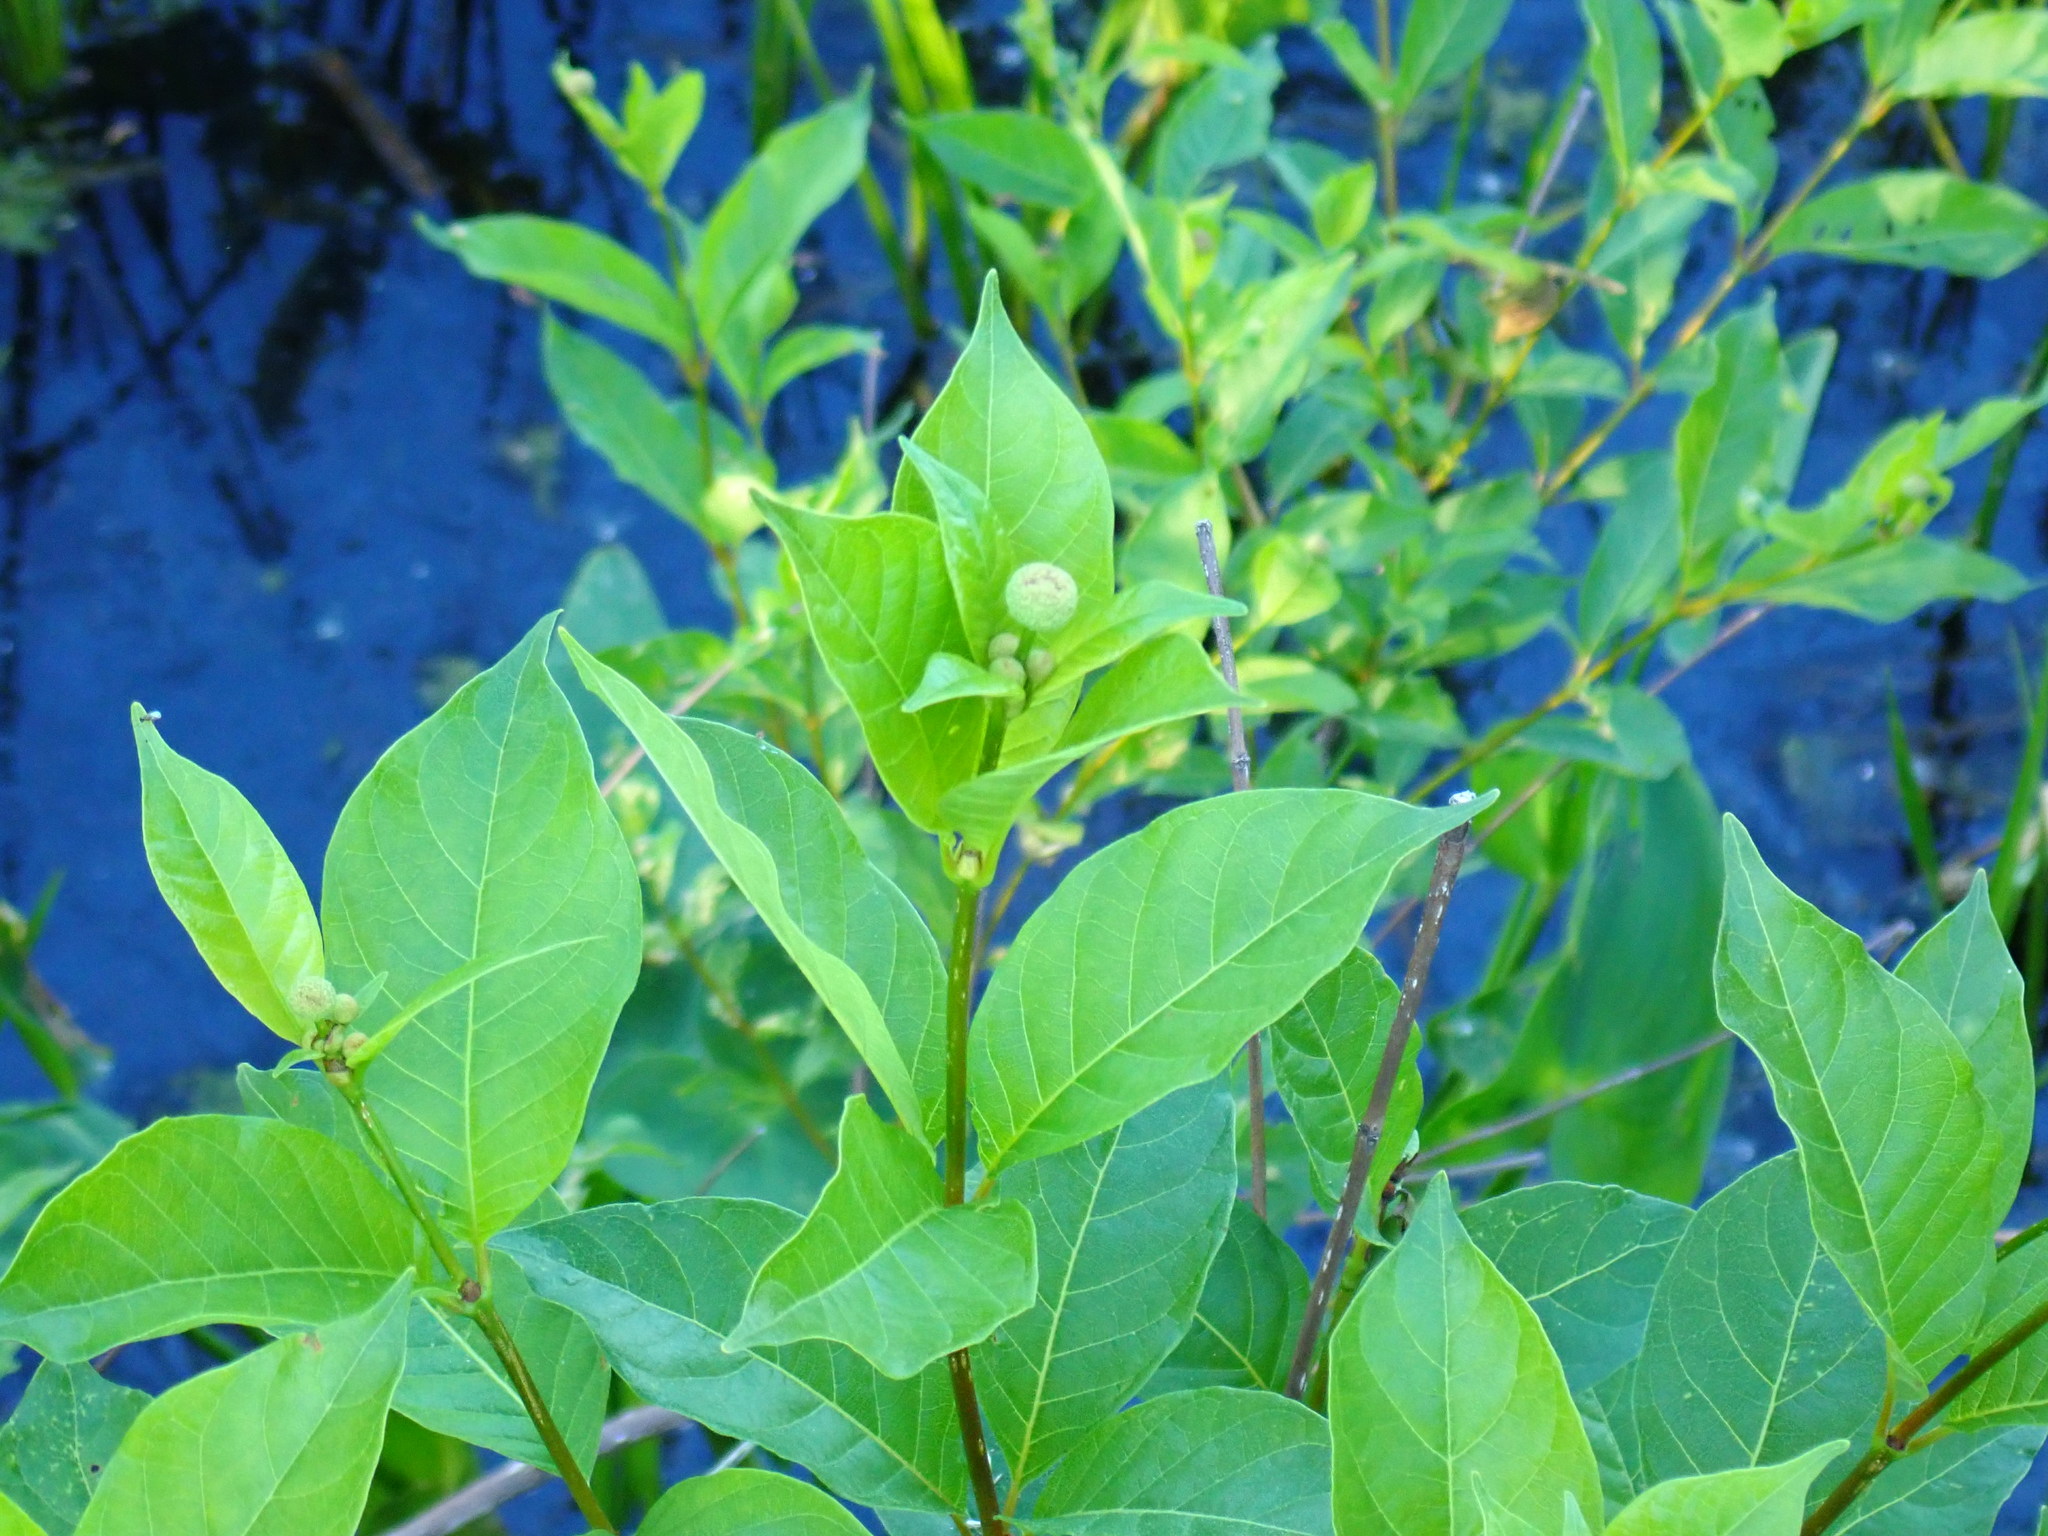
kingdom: Plantae
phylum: Tracheophyta
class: Magnoliopsida
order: Gentianales
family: Rubiaceae
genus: Cephalanthus
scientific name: Cephalanthus occidentalis
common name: Button-willow
